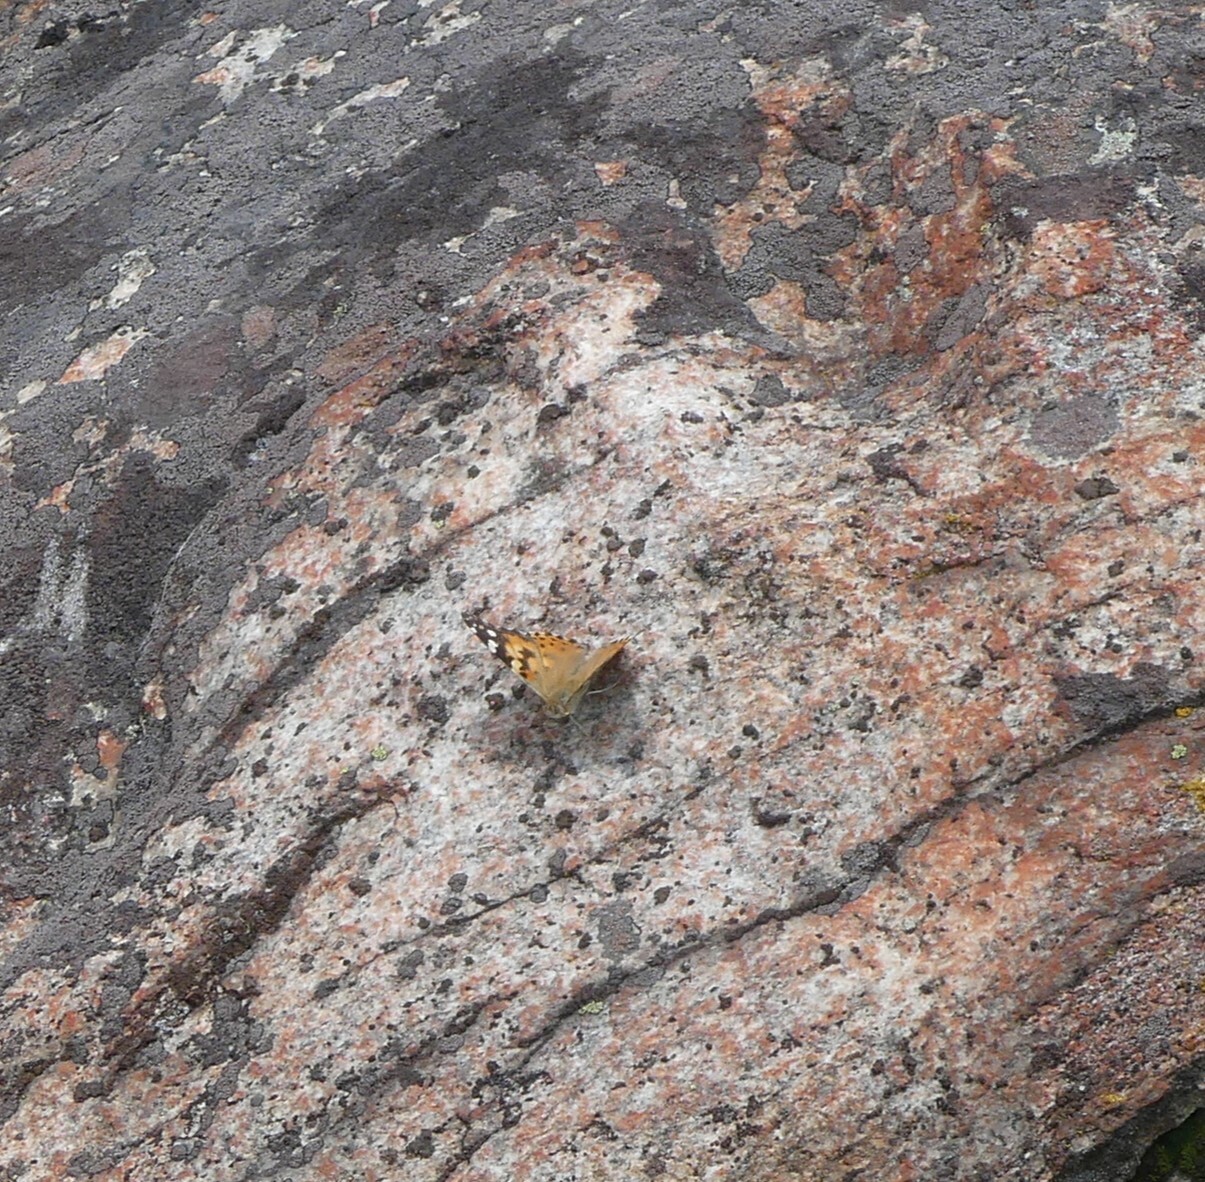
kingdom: Animalia
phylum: Arthropoda
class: Insecta
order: Lepidoptera
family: Nymphalidae
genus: Vanessa
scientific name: Vanessa cardui
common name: Painted lady
